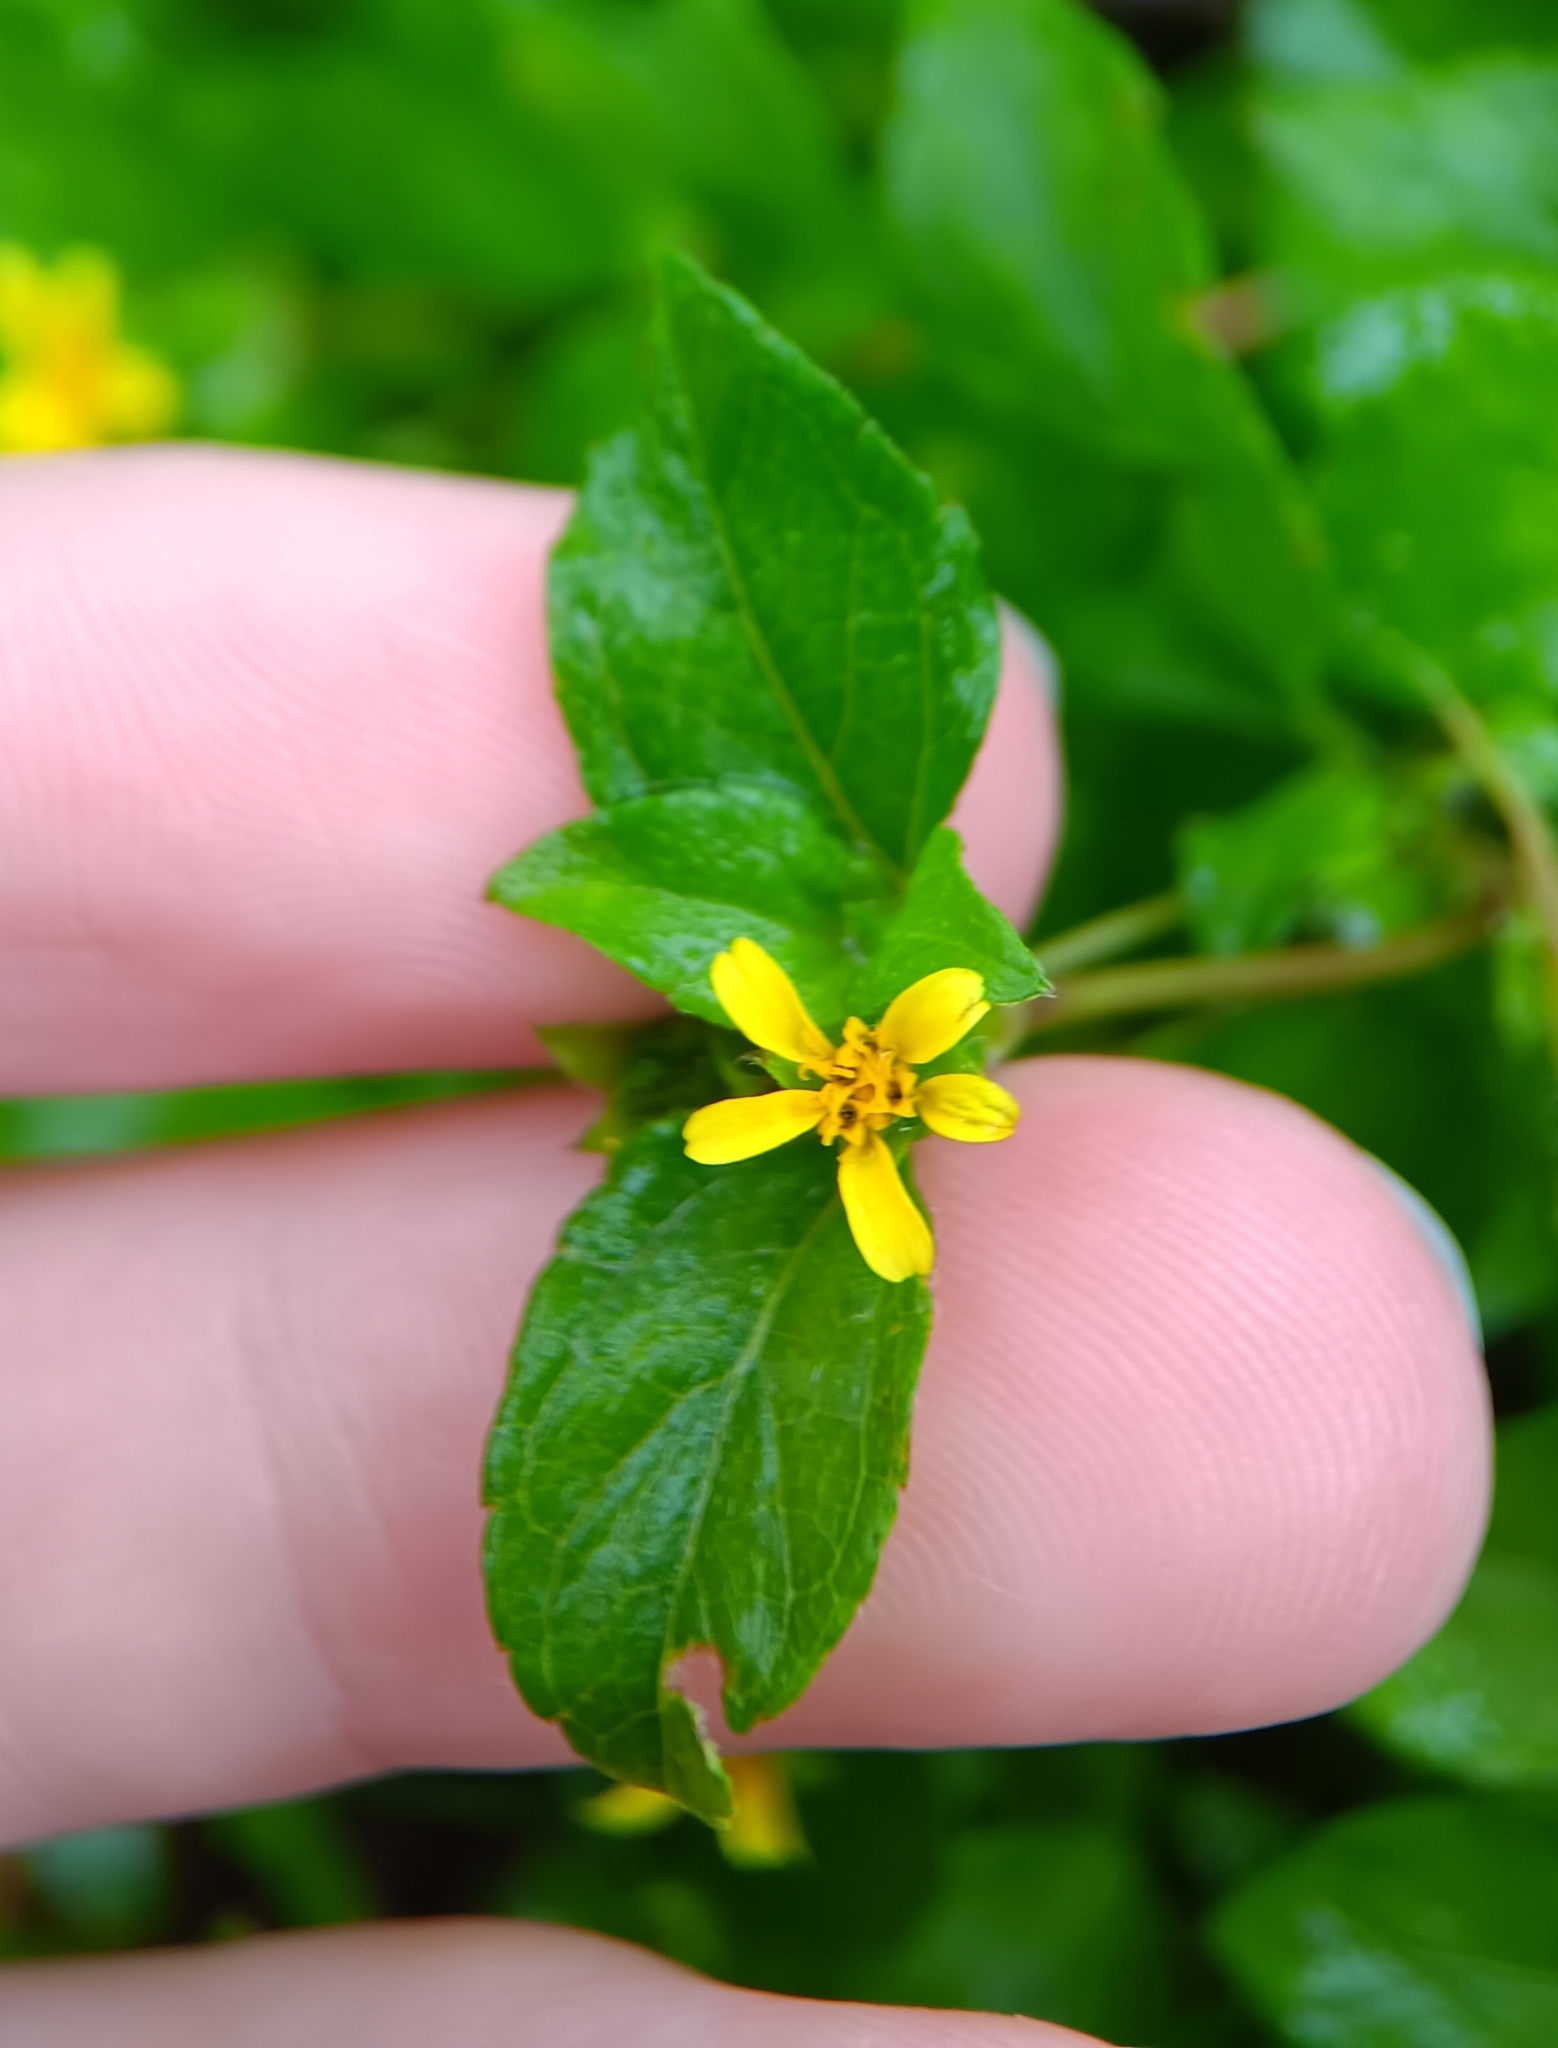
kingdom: Plantae
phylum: Tracheophyta
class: Magnoliopsida
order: Asterales
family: Asteraceae
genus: Calyptocarpus
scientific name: Calyptocarpus vialis
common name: Straggler daisy
